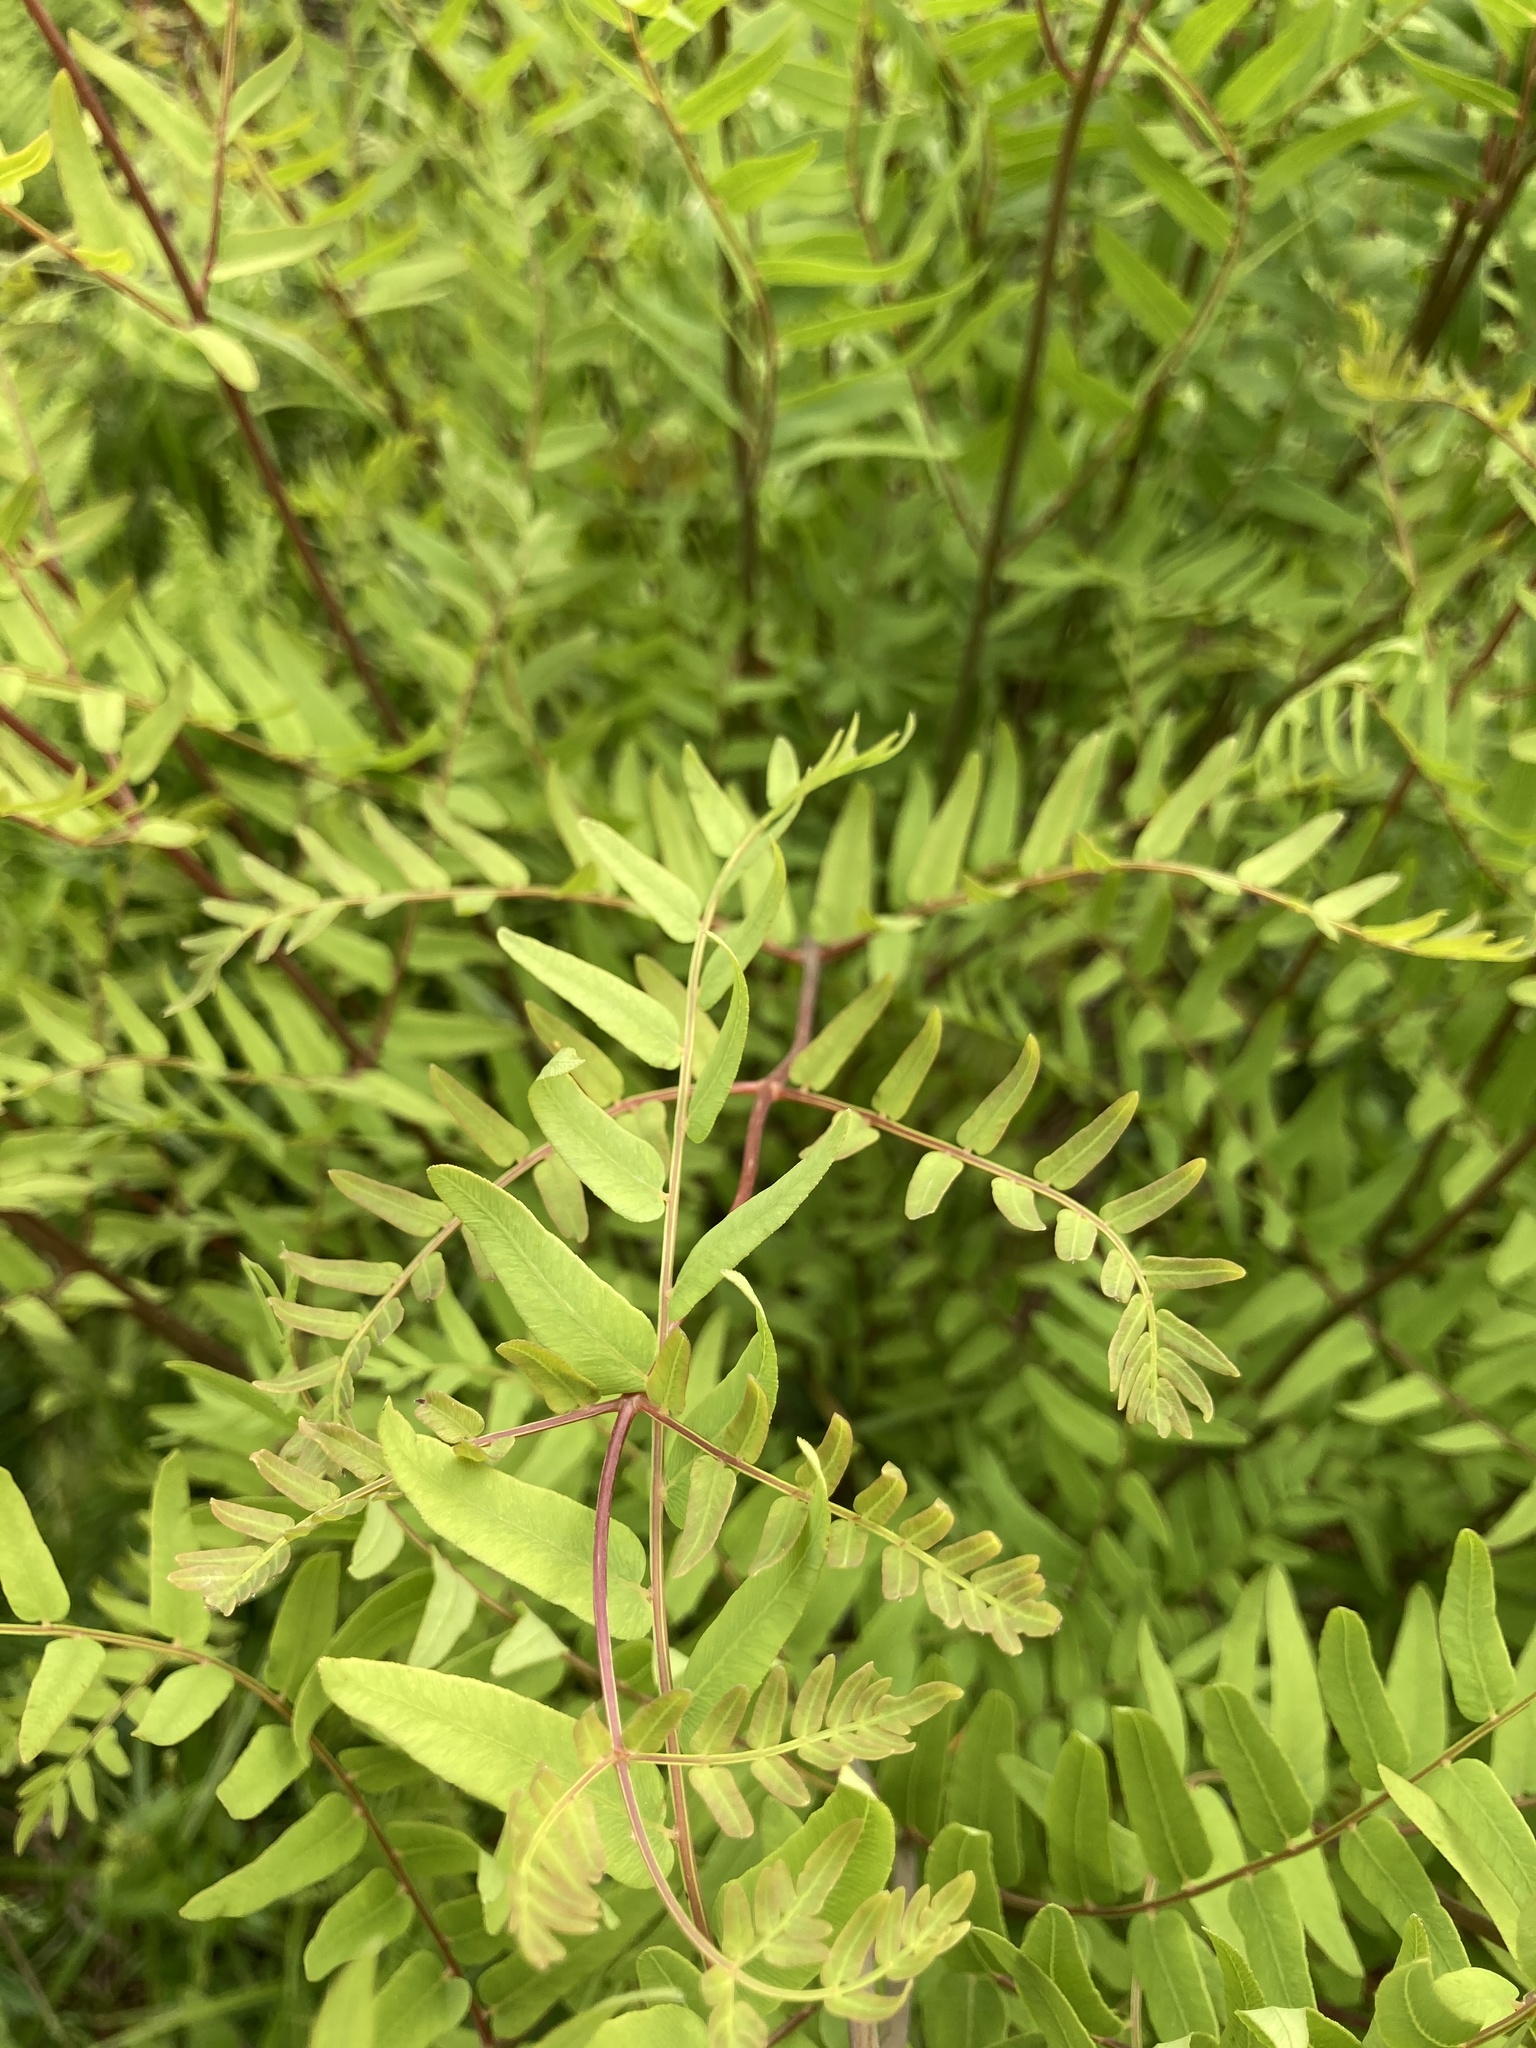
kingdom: Plantae
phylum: Tracheophyta
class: Polypodiopsida
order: Osmundales
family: Osmundaceae
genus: Osmunda
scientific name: Osmunda spectabilis
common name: American royal fern
